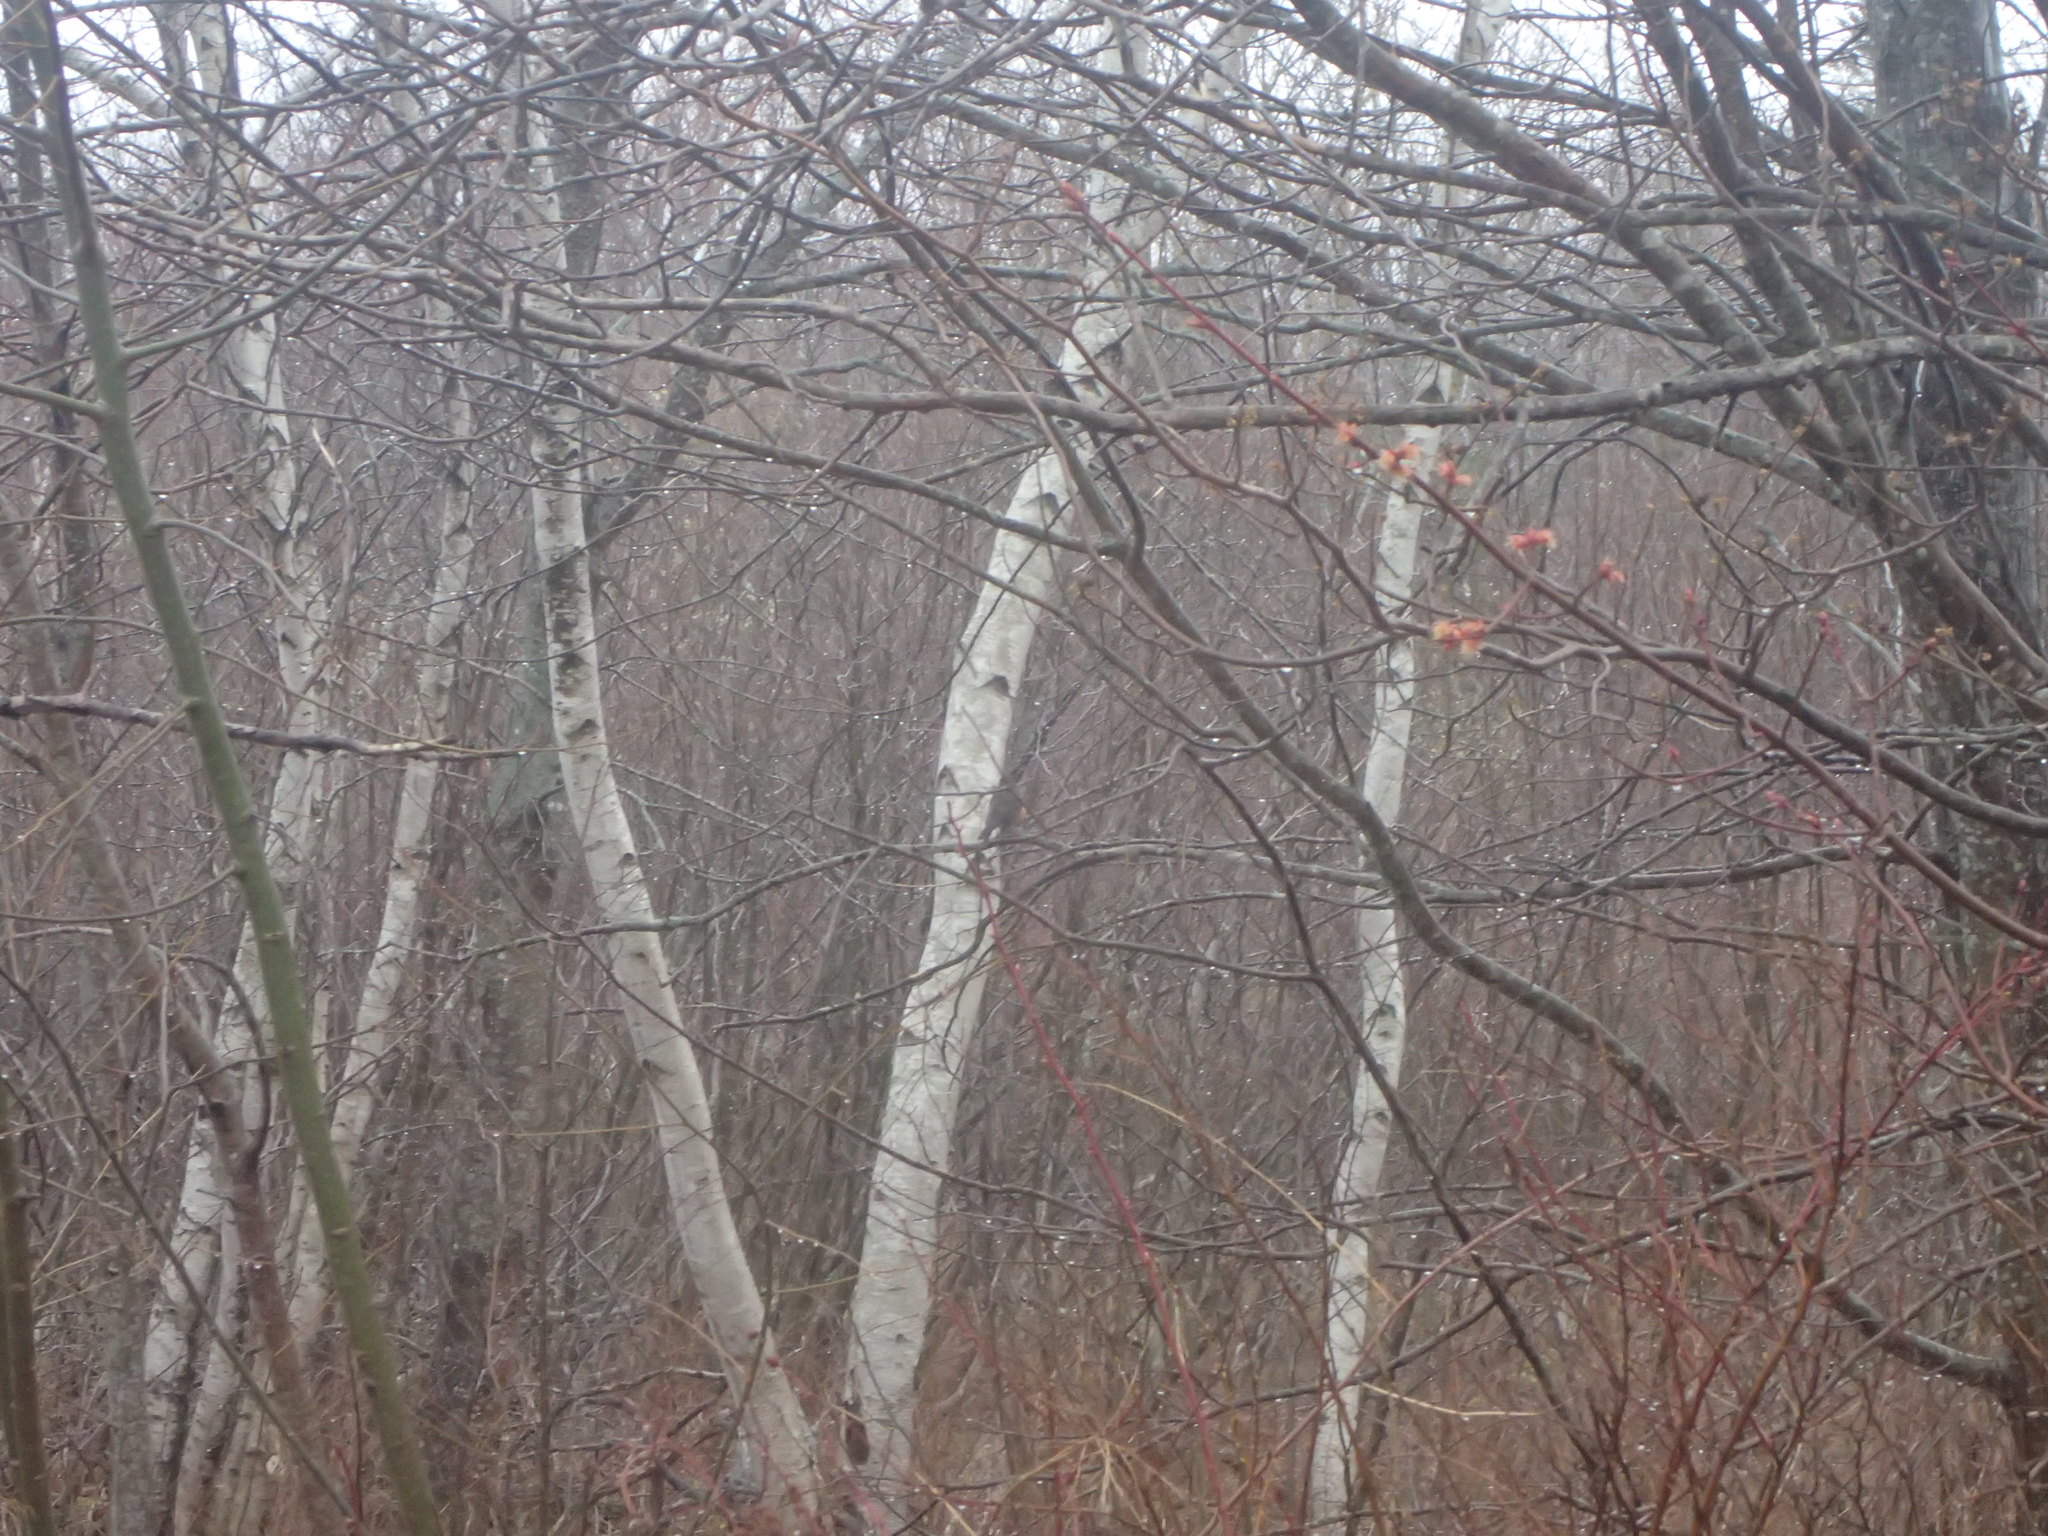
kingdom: Animalia
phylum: Chordata
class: Aves
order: Passeriformes
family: Turdidae
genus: Turdus
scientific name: Turdus migratorius
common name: American robin
